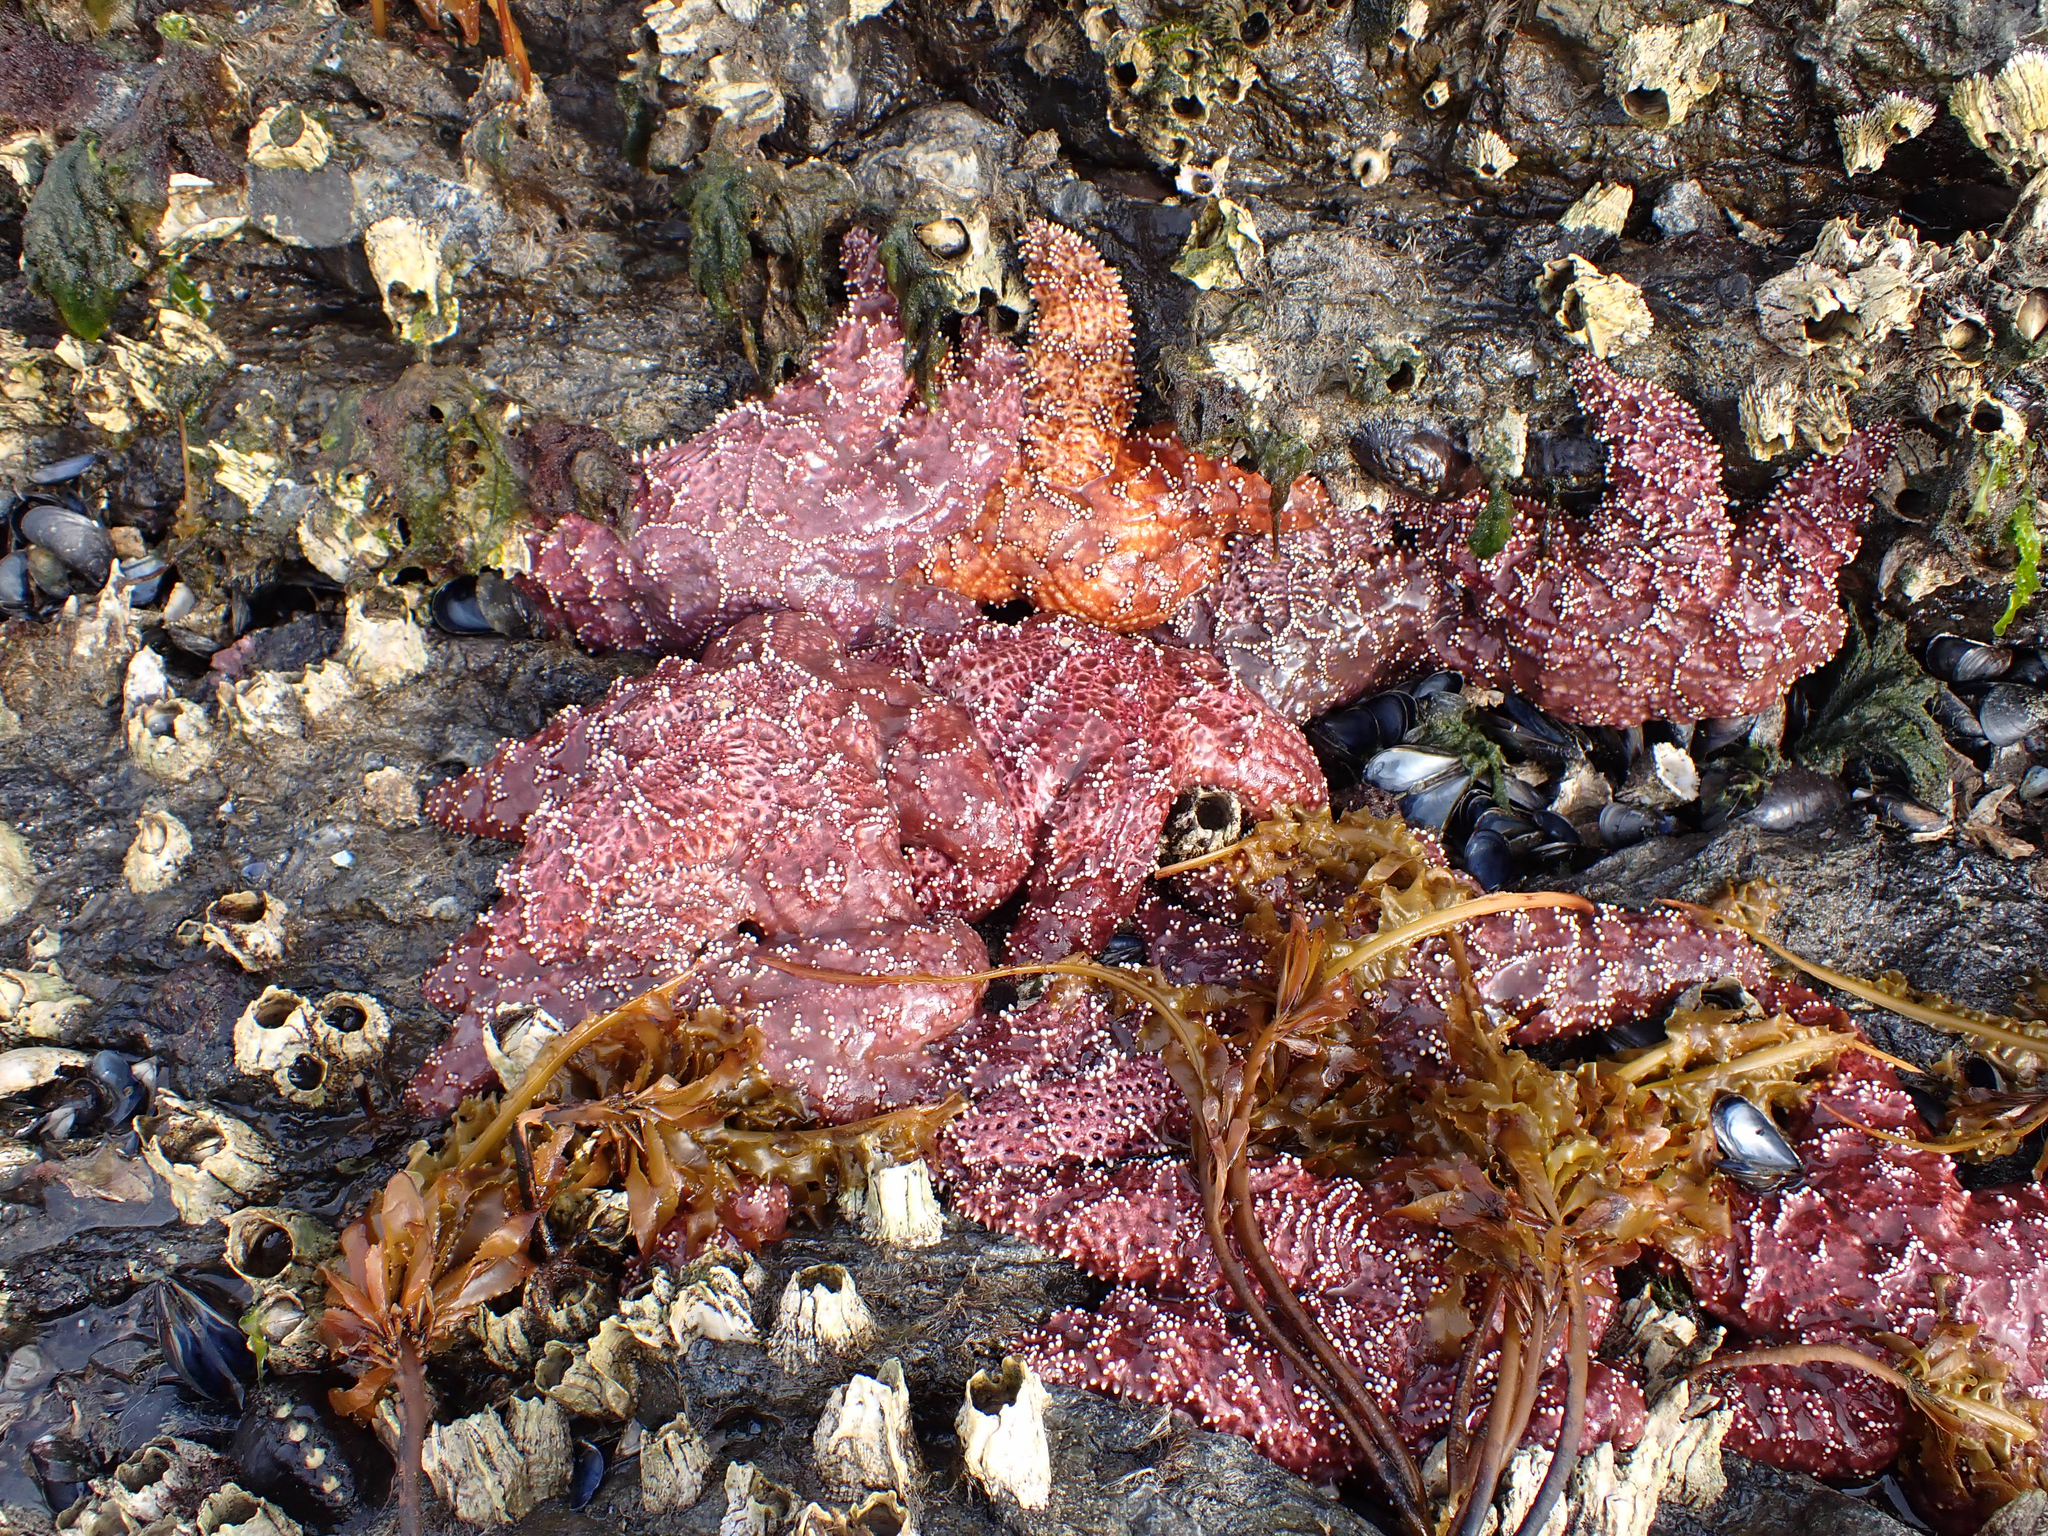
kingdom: Animalia
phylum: Echinodermata
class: Asteroidea
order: Forcipulatida
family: Asteriidae
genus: Pisaster
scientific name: Pisaster ochraceus
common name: Ochre stars
